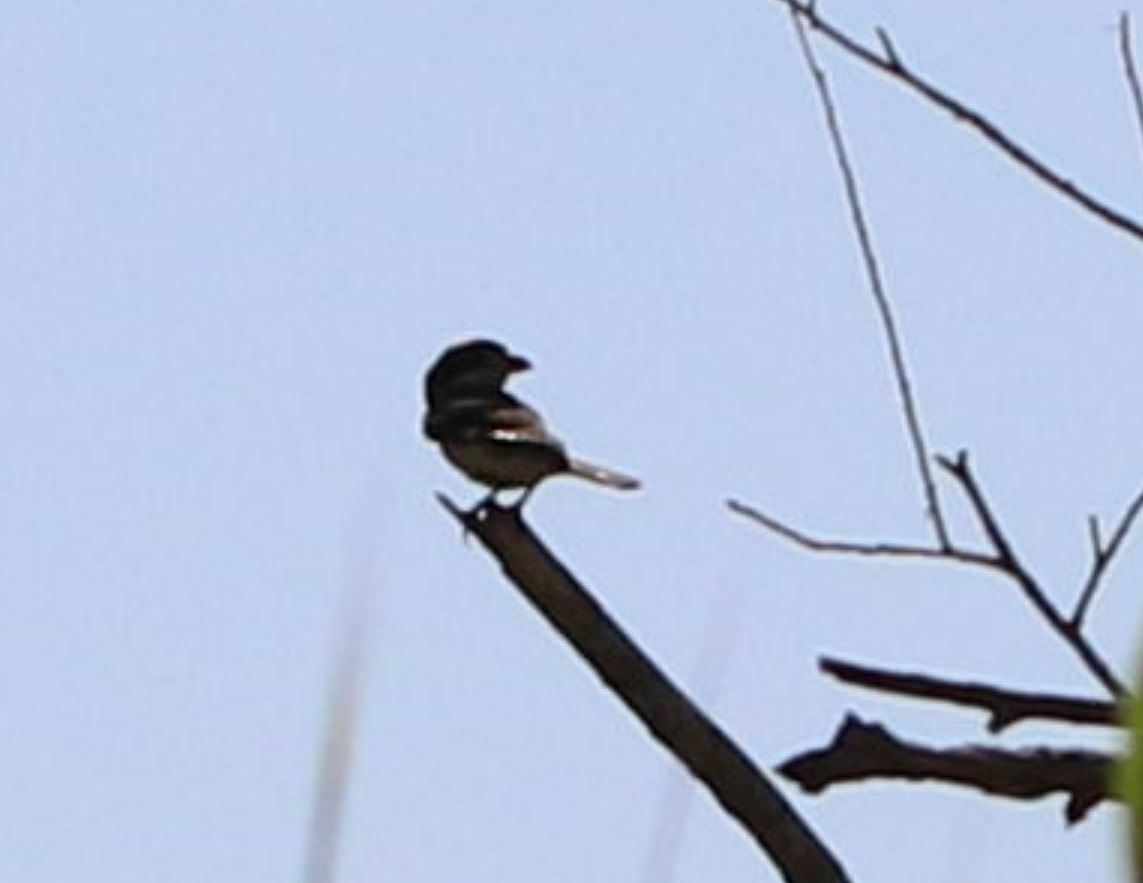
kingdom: Animalia
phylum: Chordata
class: Aves
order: Passeriformes
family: Laniidae
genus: Lanius
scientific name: Lanius senator
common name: Woodchat shrike
